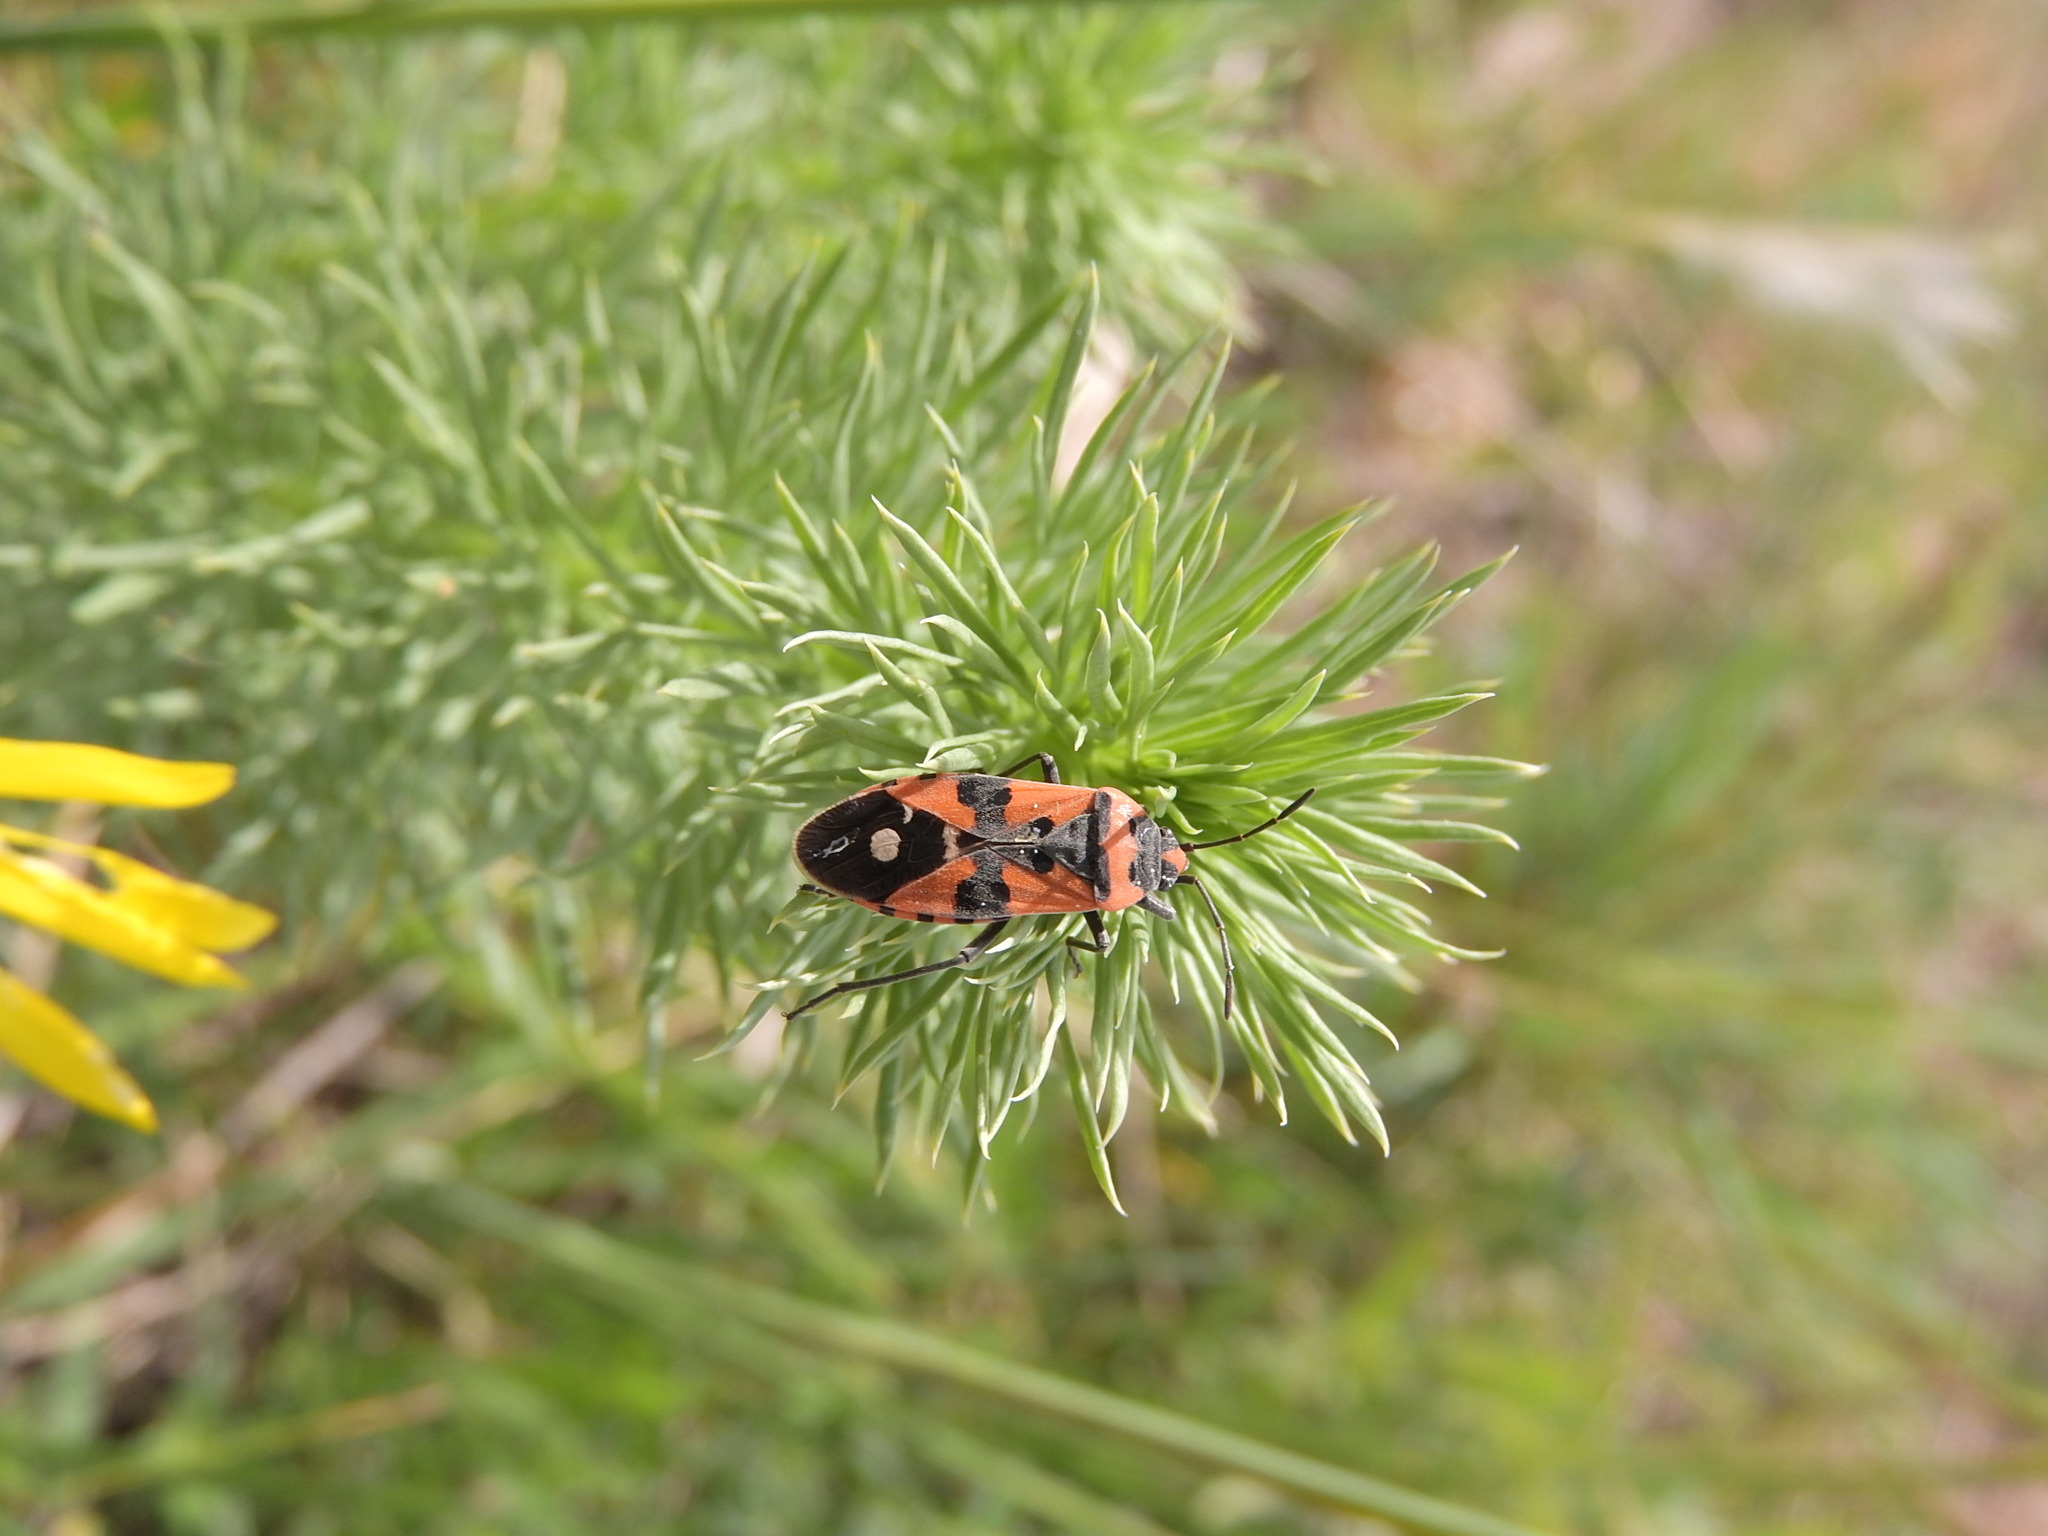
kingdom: Animalia
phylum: Arthropoda
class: Insecta
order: Hemiptera
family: Lygaeidae
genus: Lygaeus
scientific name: Lygaeus equestris
